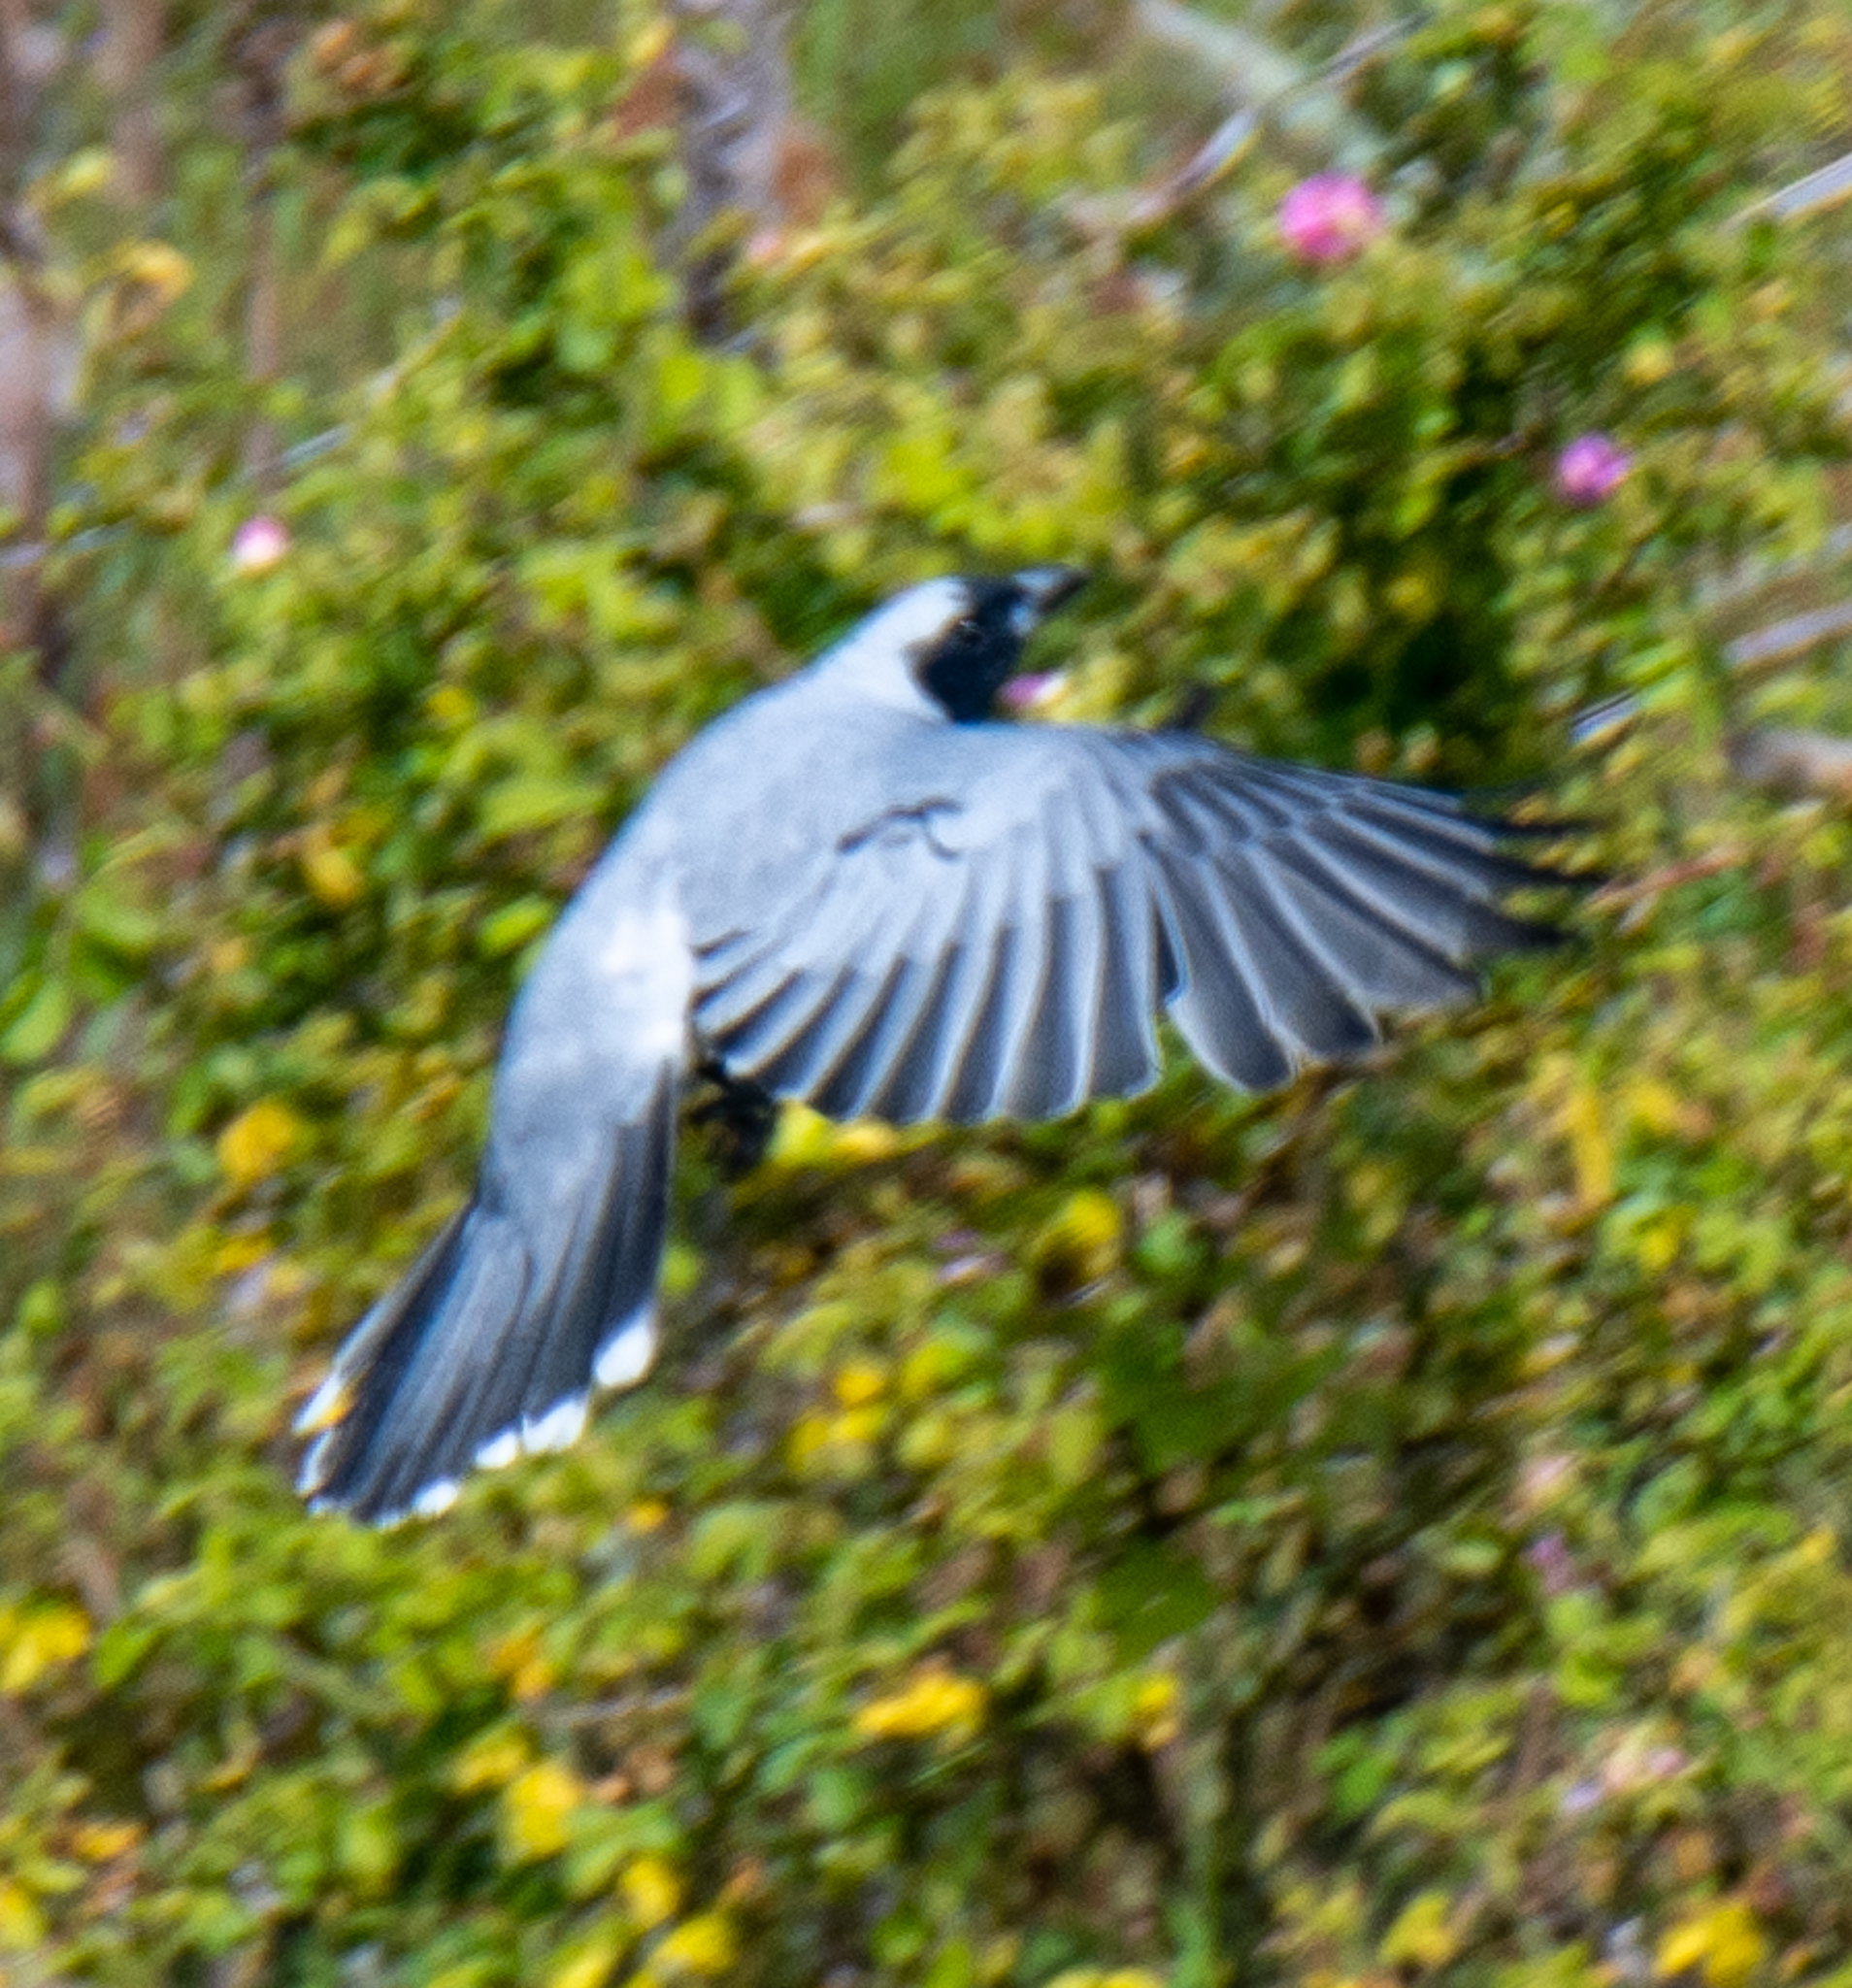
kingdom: Animalia
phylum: Chordata
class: Aves
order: Passeriformes
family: Campephagidae
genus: Coracina
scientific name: Coracina novaehollandiae
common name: Black-faced cuckooshrike
